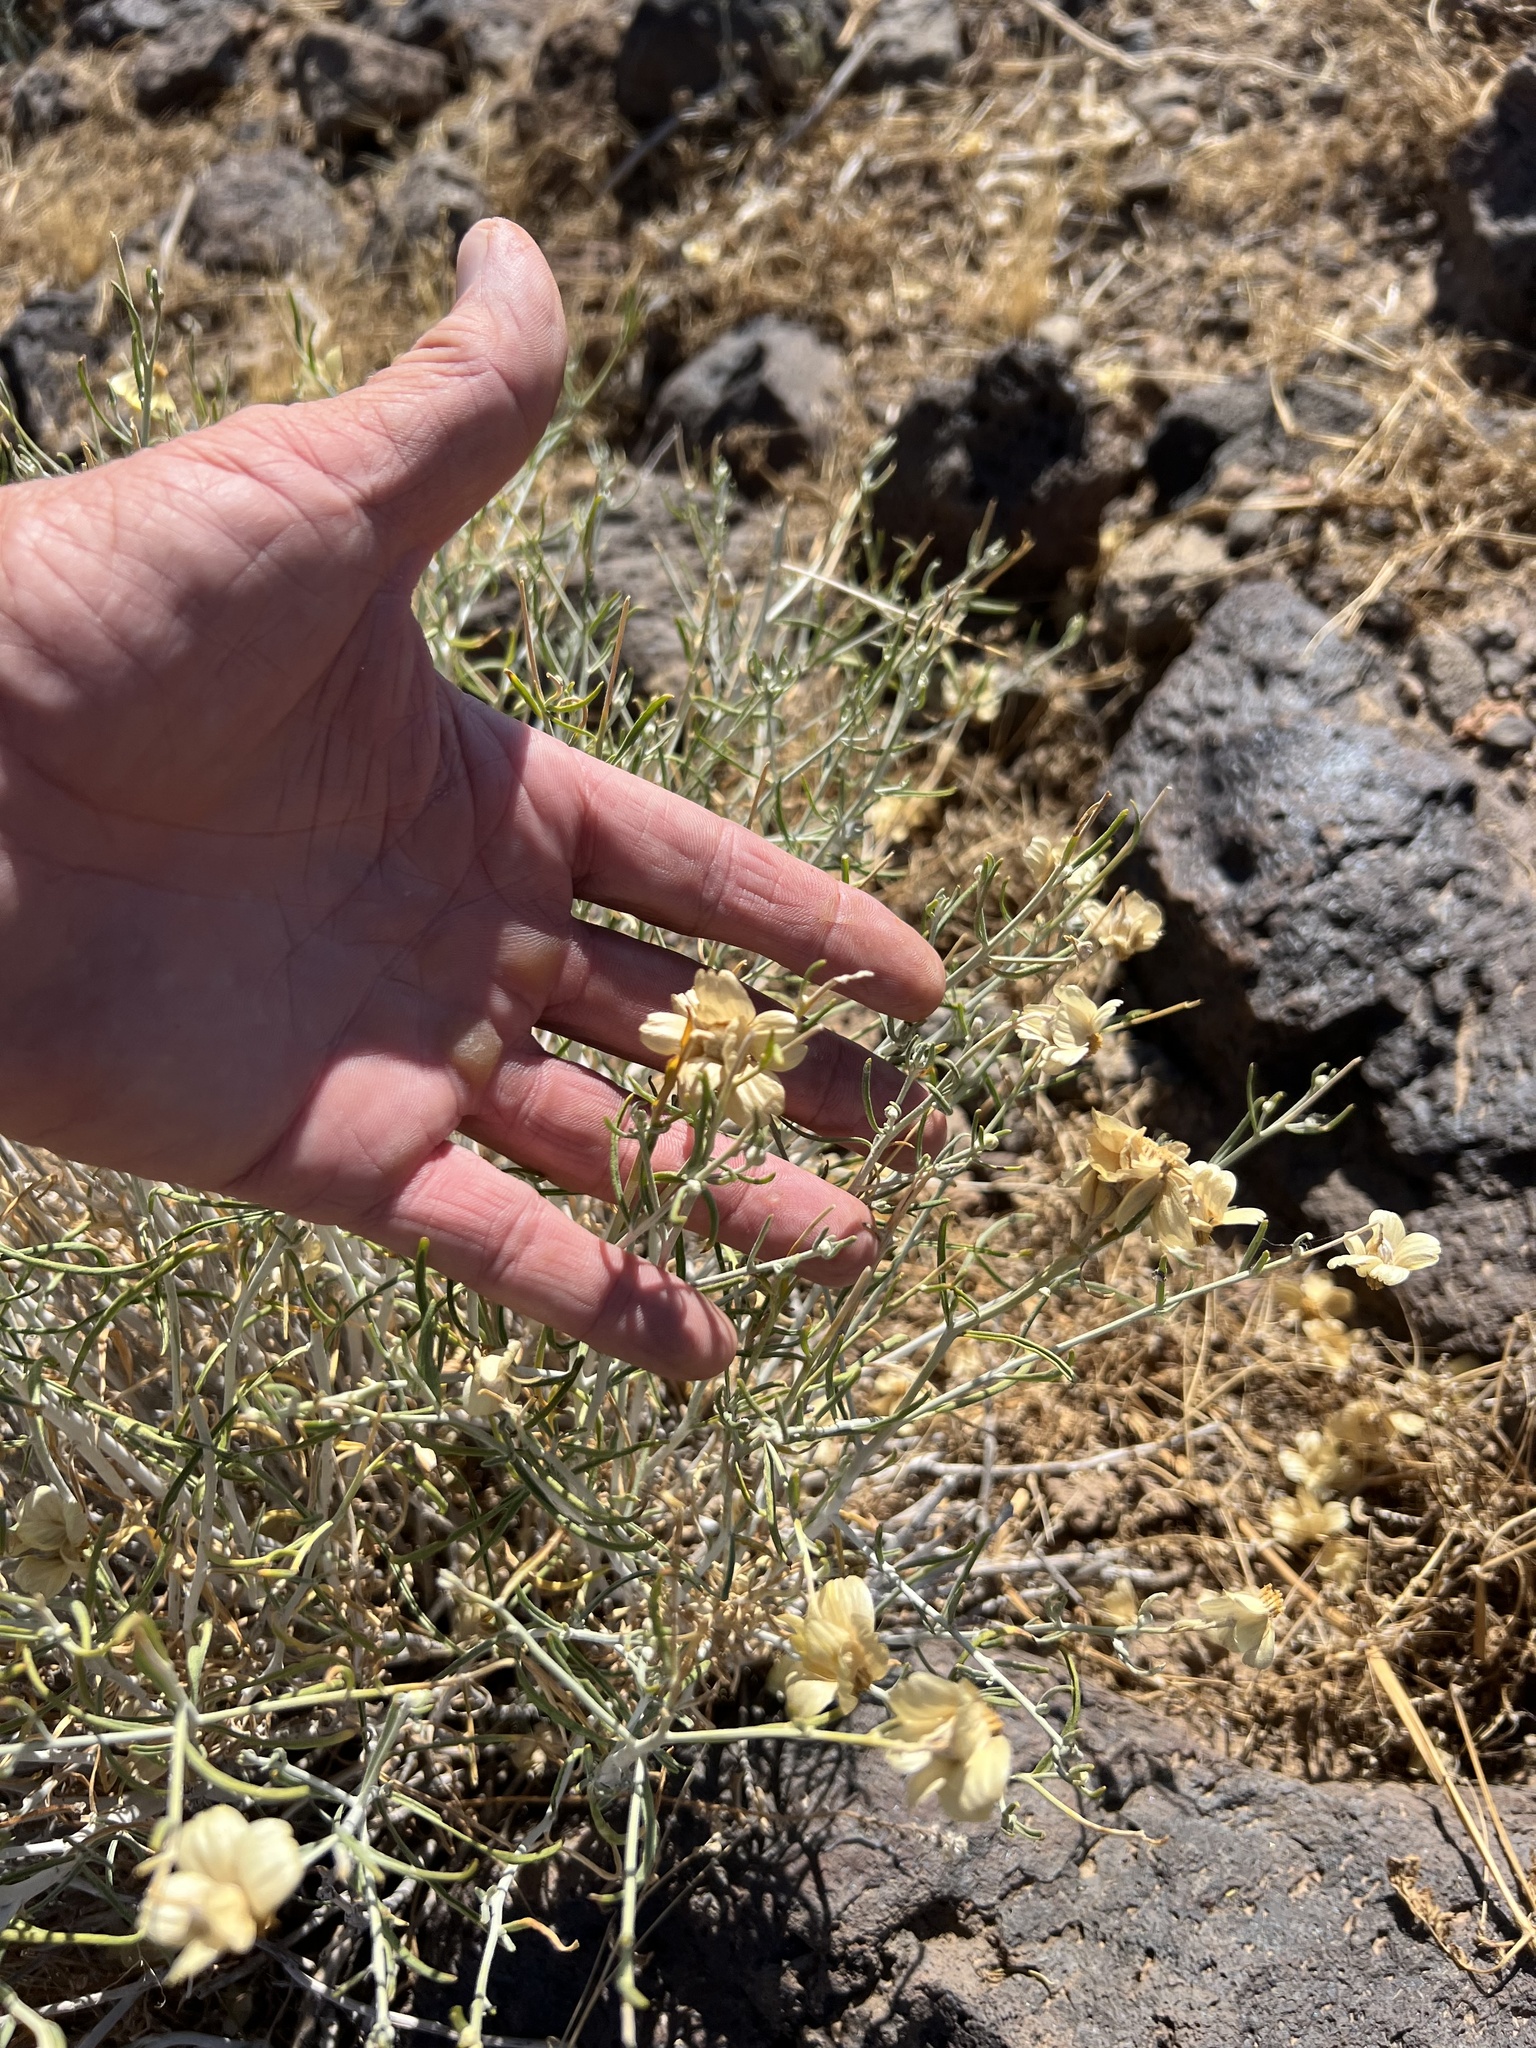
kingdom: Plantae
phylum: Tracheophyta
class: Magnoliopsida
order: Asterales
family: Asteraceae
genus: Psilostrophe
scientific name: Psilostrophe cooperi
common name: White-stem paper-flower
